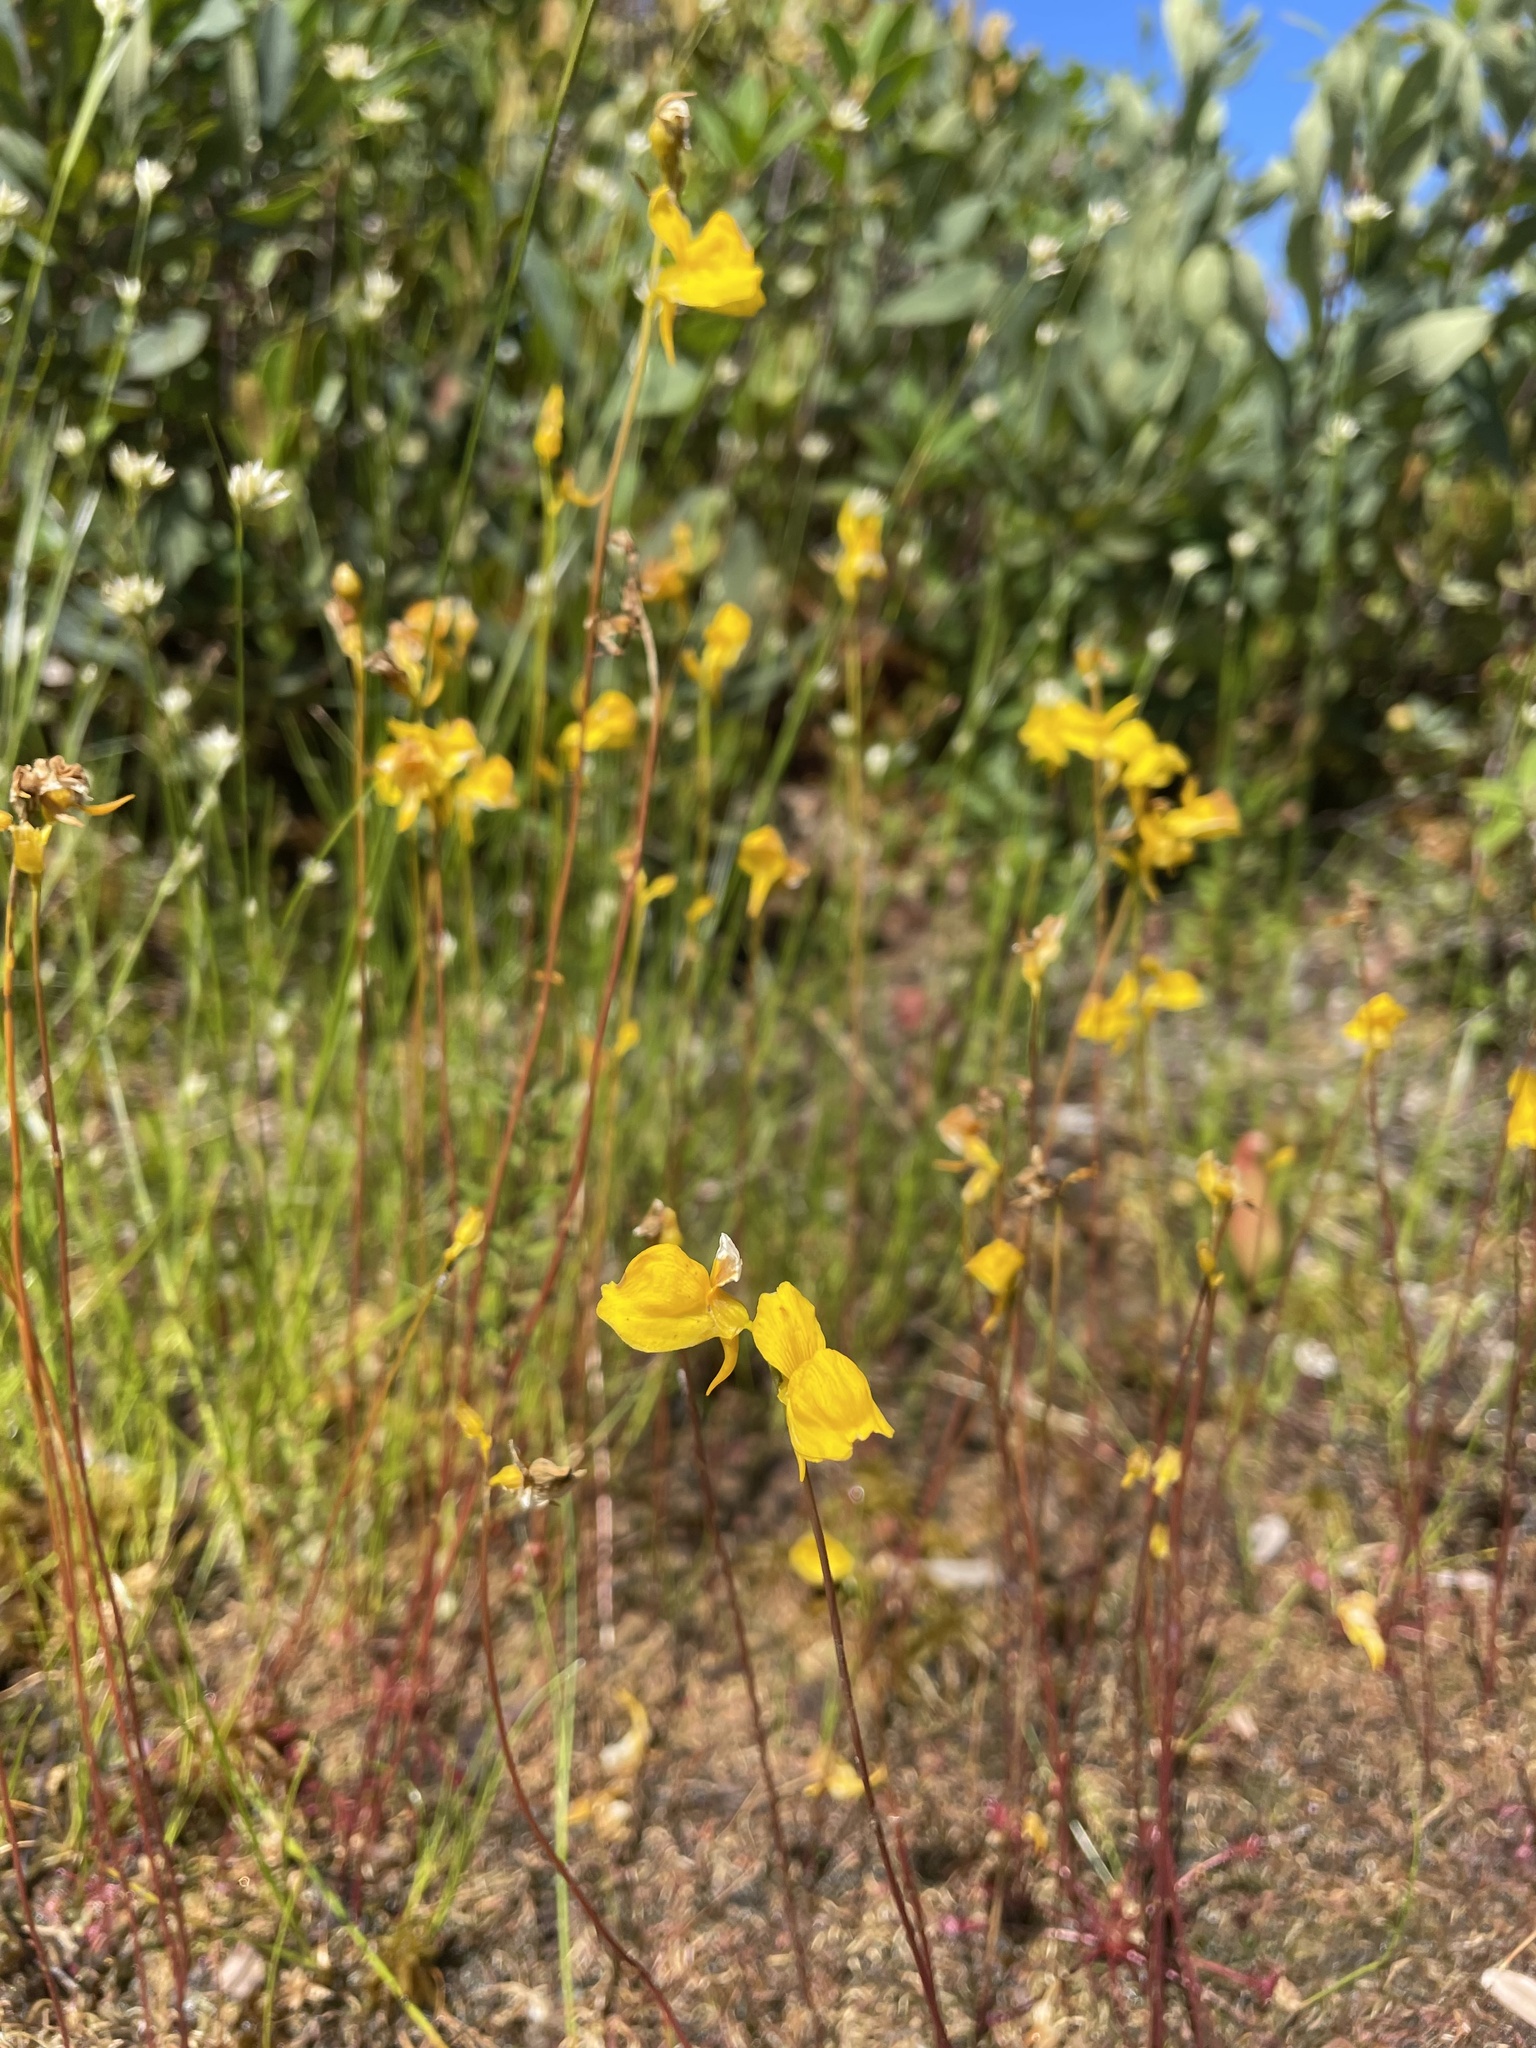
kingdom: Plantae
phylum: Tracheophyta
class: Magnoliopsida
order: Lamiales
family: Lentibulariaceae
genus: Utricularia
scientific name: Utricularia cornuta
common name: Horned bladderwort
